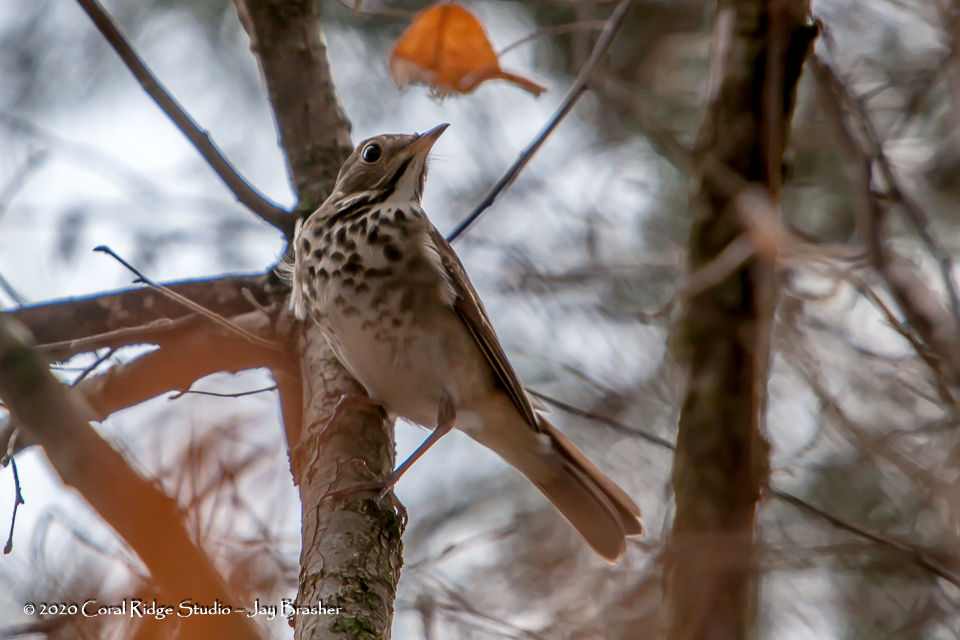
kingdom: Animalia
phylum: Chordata
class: Aves
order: Passeriformes
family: Turdidae
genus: Catharus
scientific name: Catharus guttatus
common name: Hermit thrush
